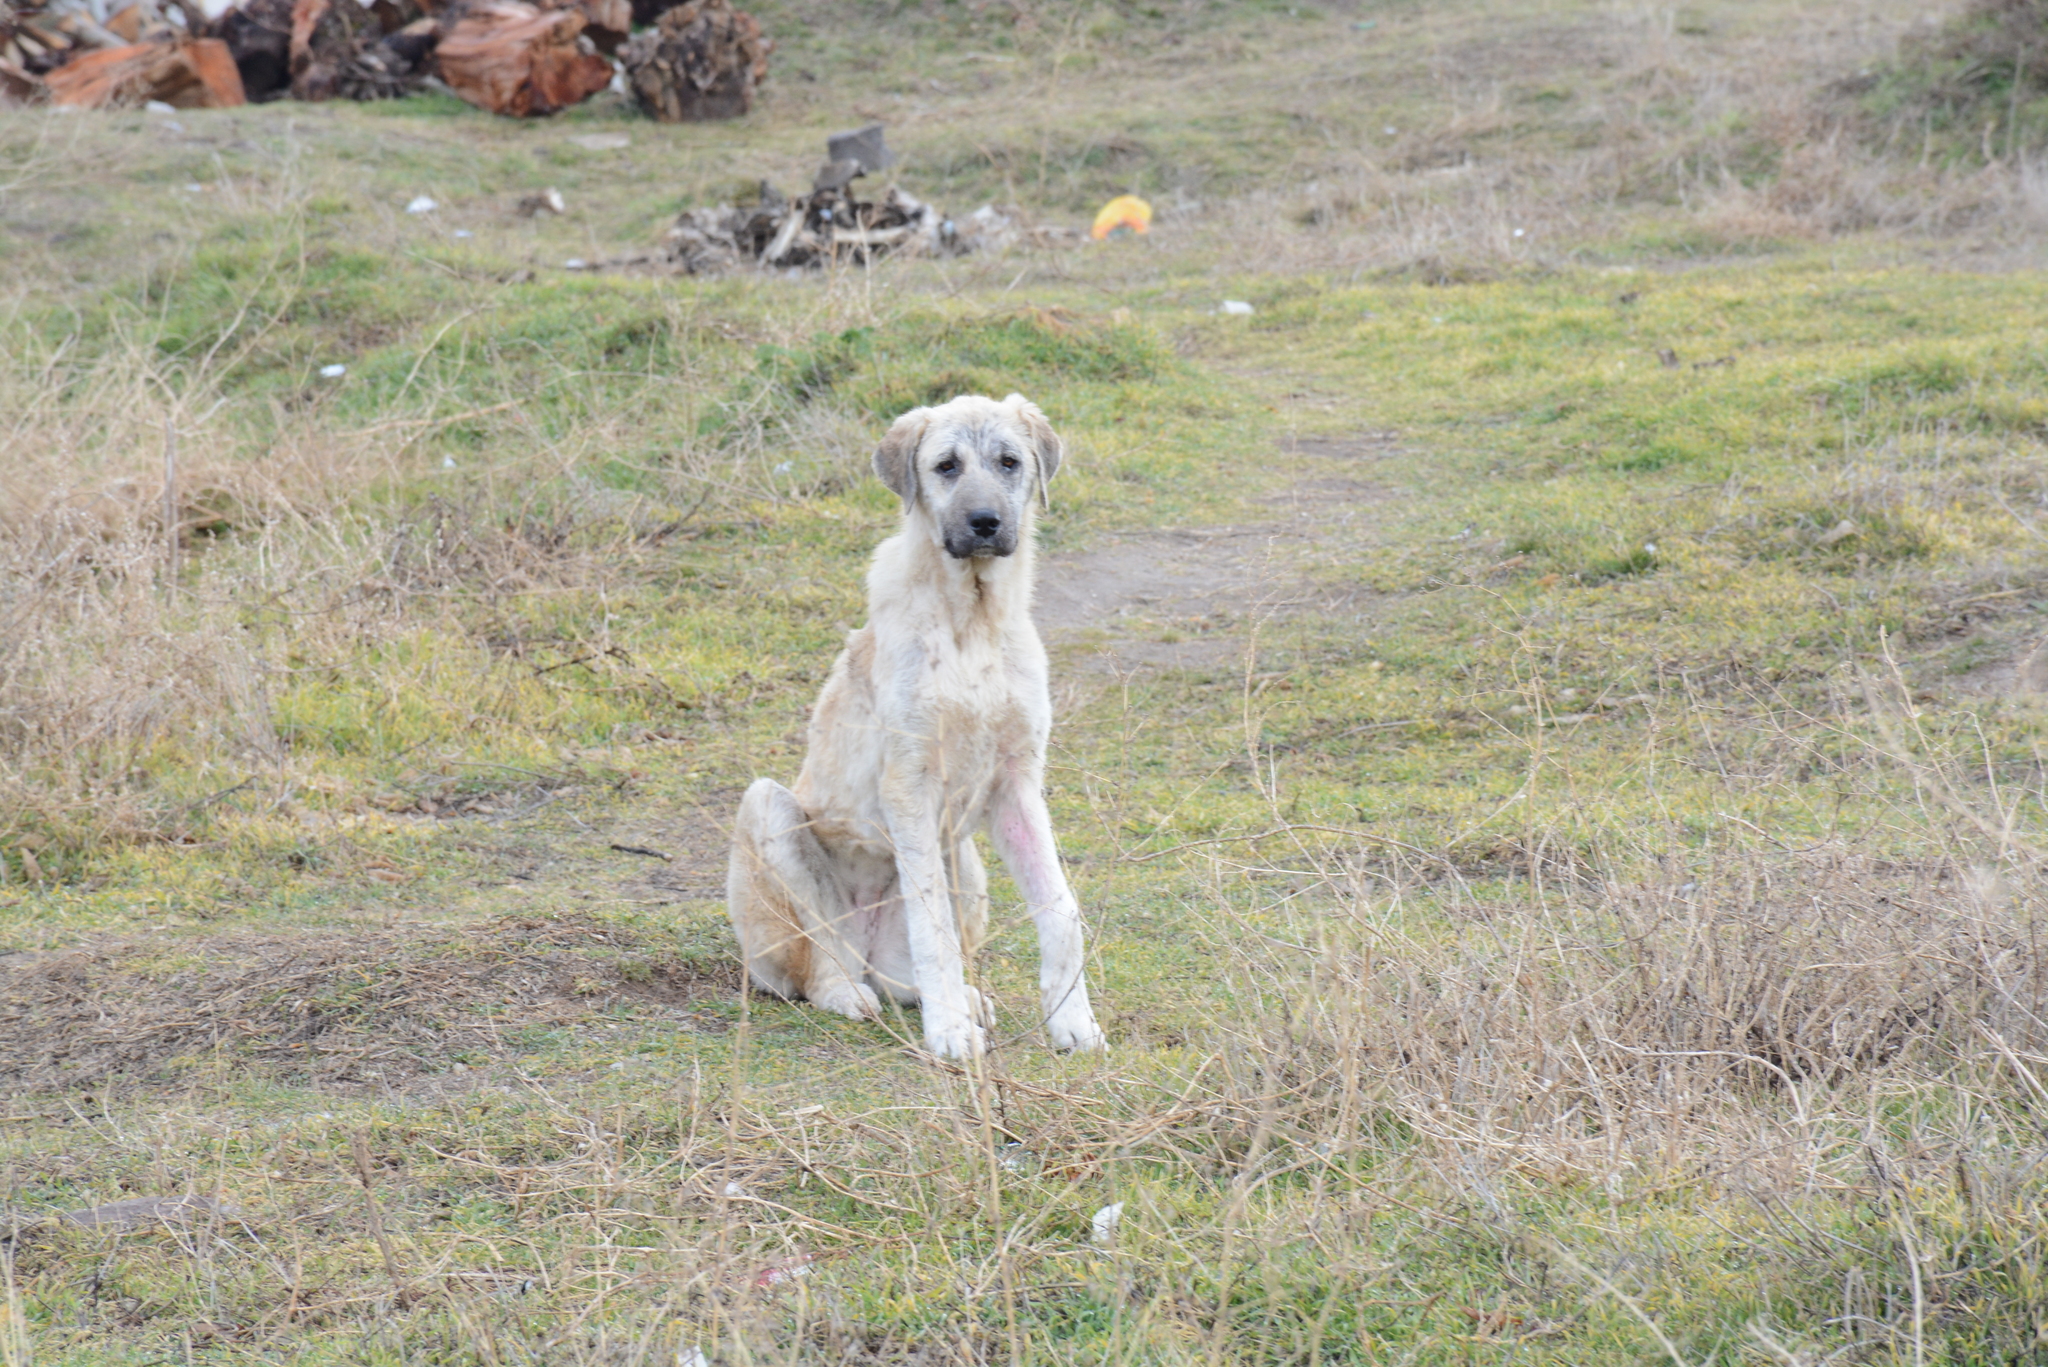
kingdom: Animalia
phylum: Chordata
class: Mammalia
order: Carnivora
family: Canidae
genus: Canis
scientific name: Canis lupus
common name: Gray wolf
